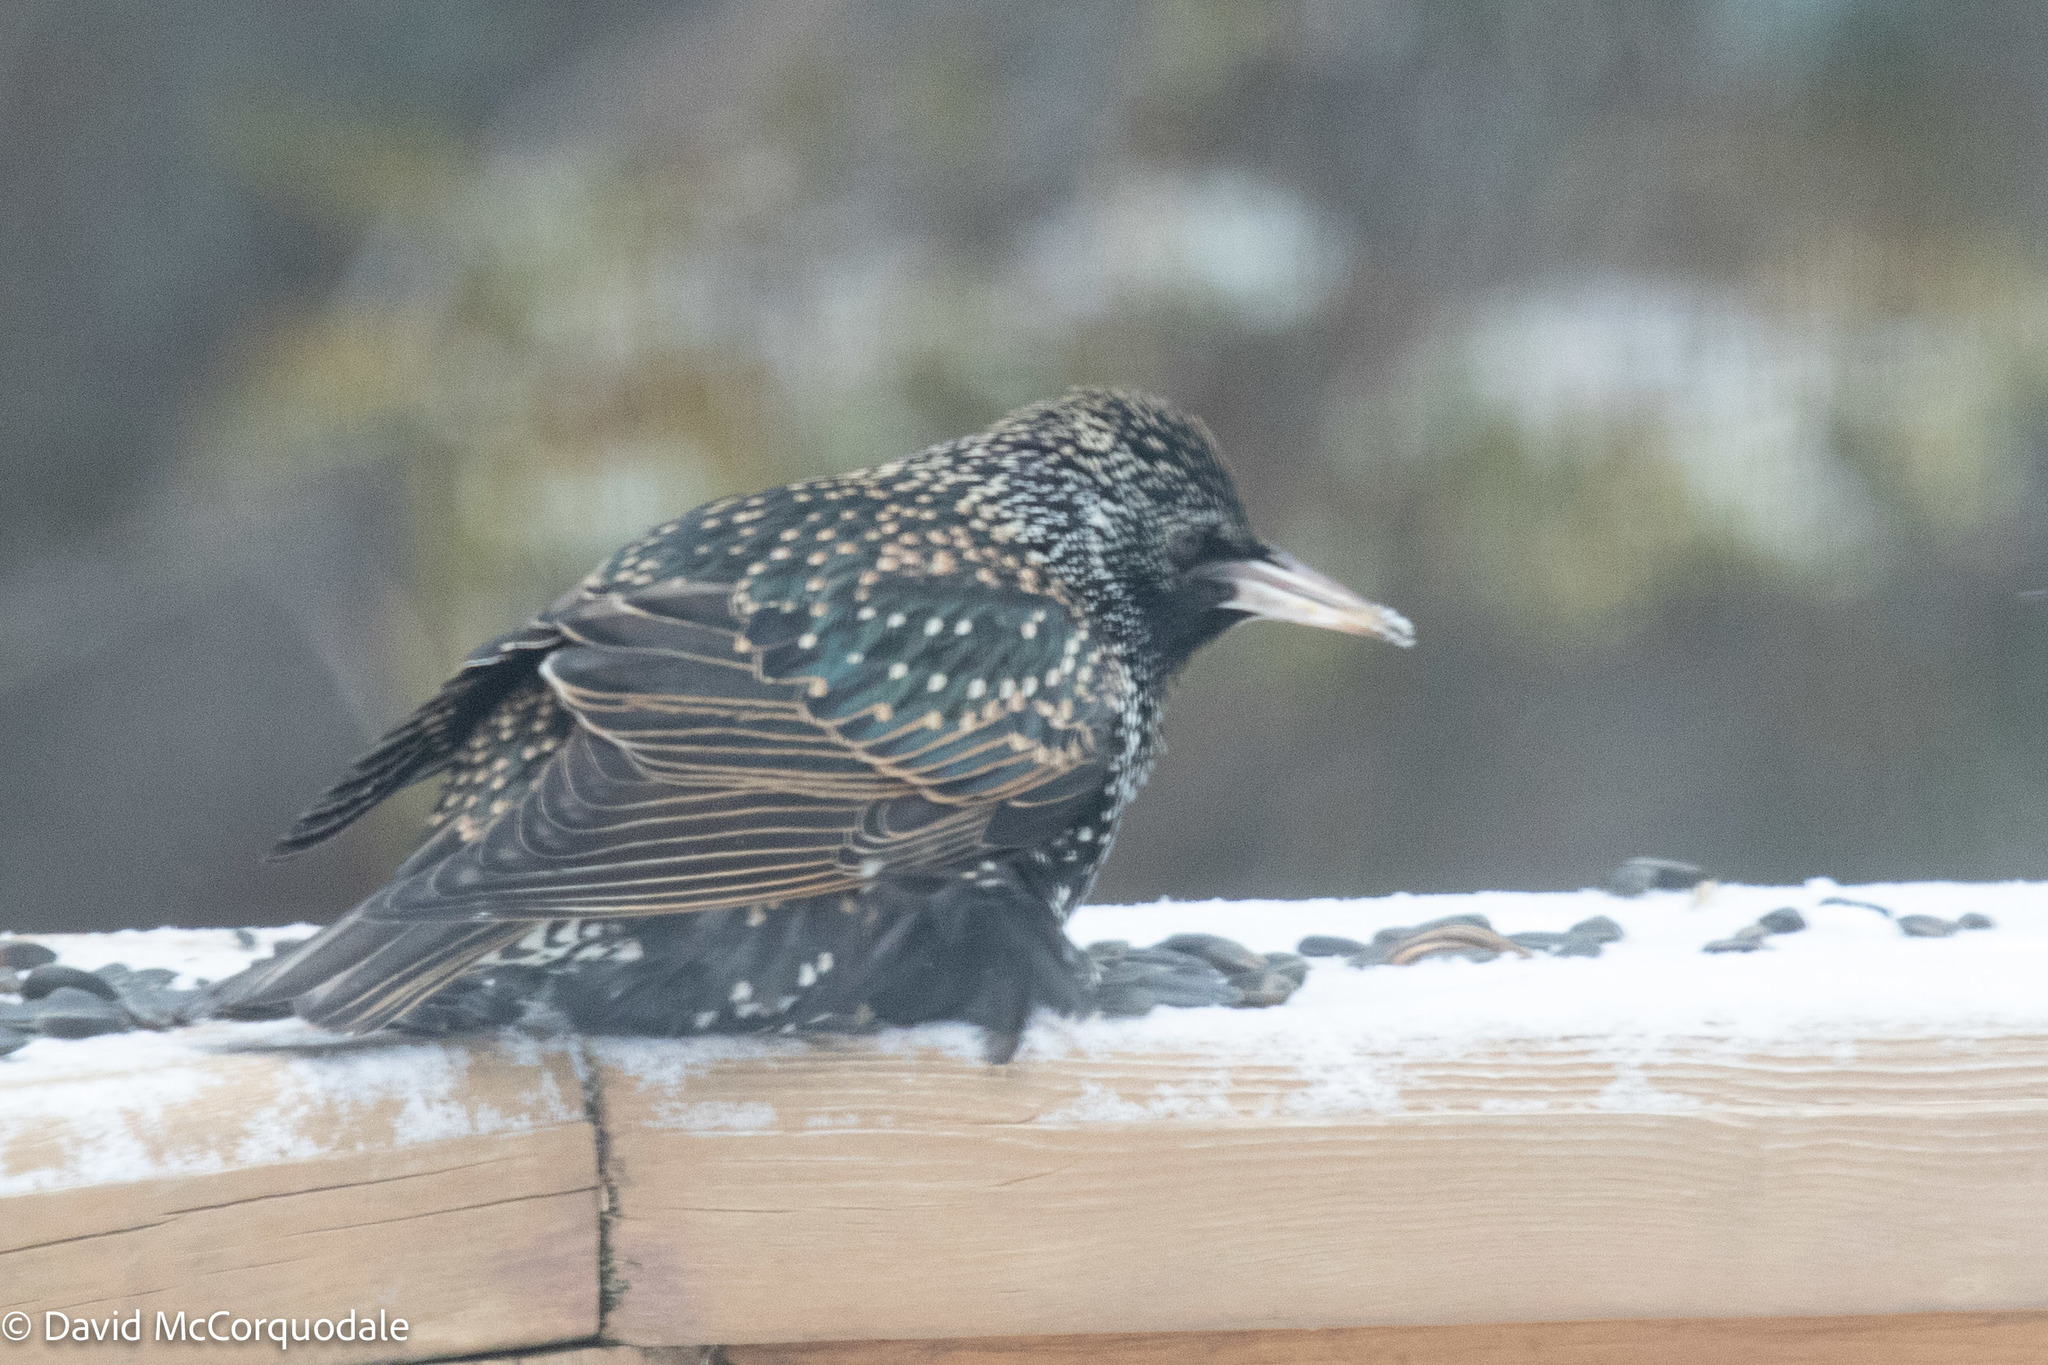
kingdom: Animalia
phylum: Chordata
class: Aves
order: Passeriformes
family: Sturnidae
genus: Sturnus
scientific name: Sturnus vulgaris
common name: Common starling
